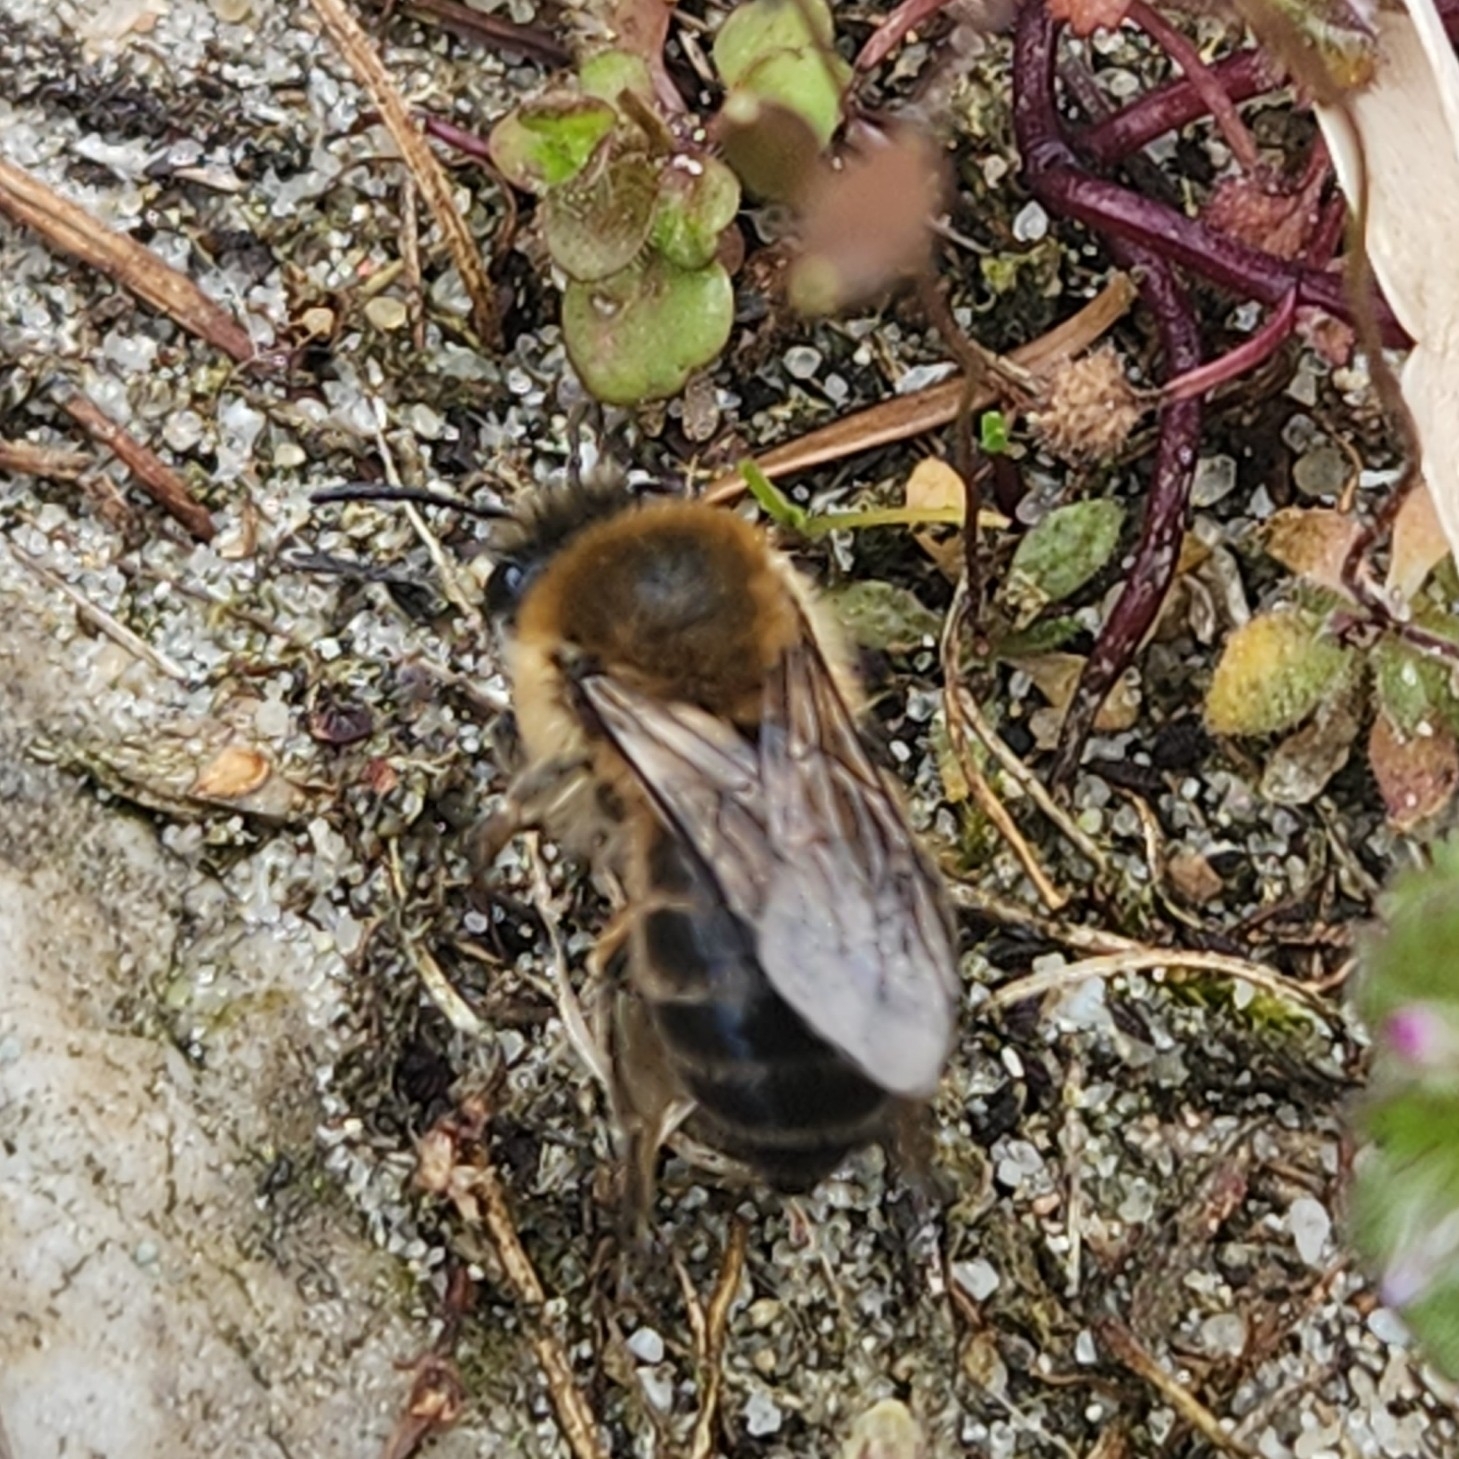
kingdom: Animalia
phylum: Arthropoda
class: Insecta
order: Hymenoptera
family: Colletidae
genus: Colletes
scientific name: Colletes cunicularius
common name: Early colletes
